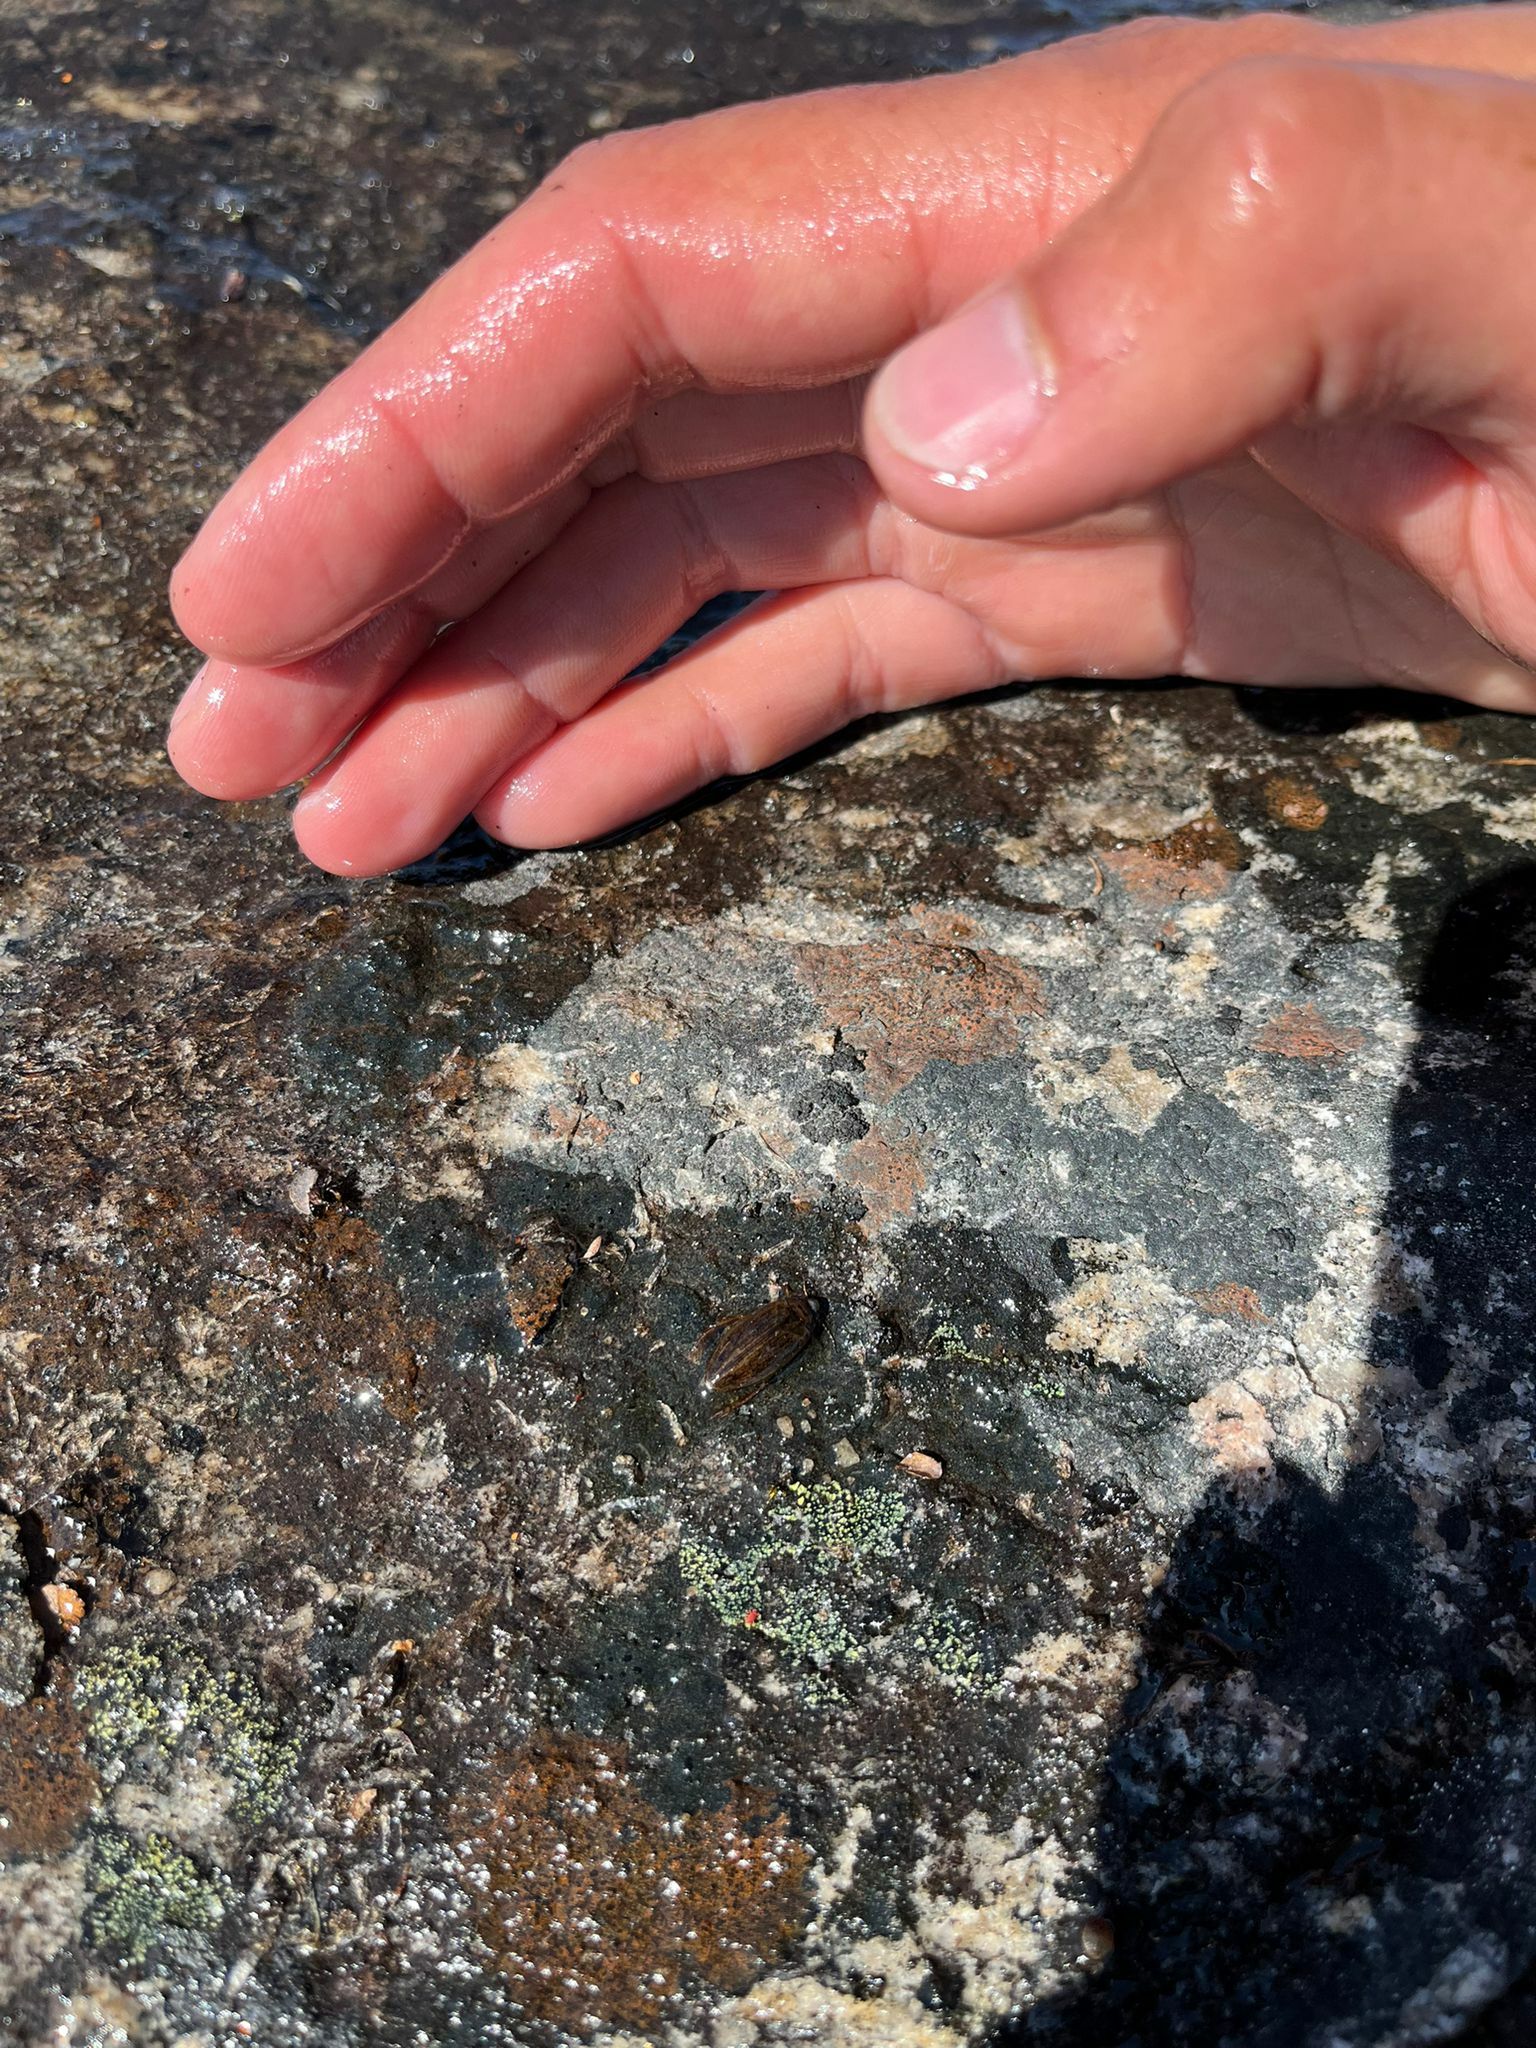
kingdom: Animalia
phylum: Arthropoda
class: Insecta
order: Coleoptera
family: Dytiscidae
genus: Colymbetes
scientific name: Colymbetes dolabratus
